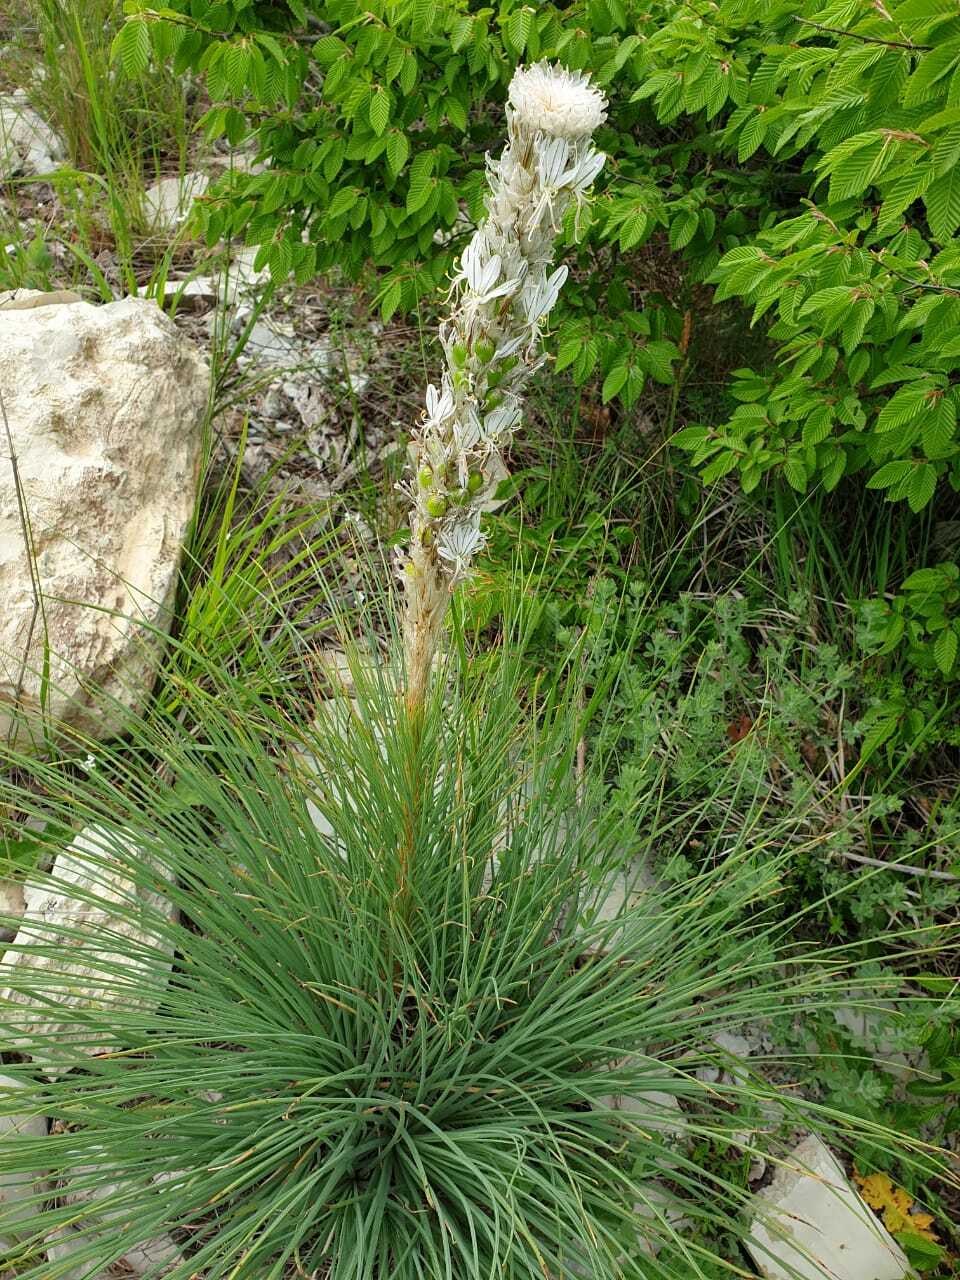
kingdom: Plantae
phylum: Tracheophyta
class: Liliopsida
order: Asparagales
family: Asphodelaceae
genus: Asphodeline
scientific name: Asphodeline taurica
